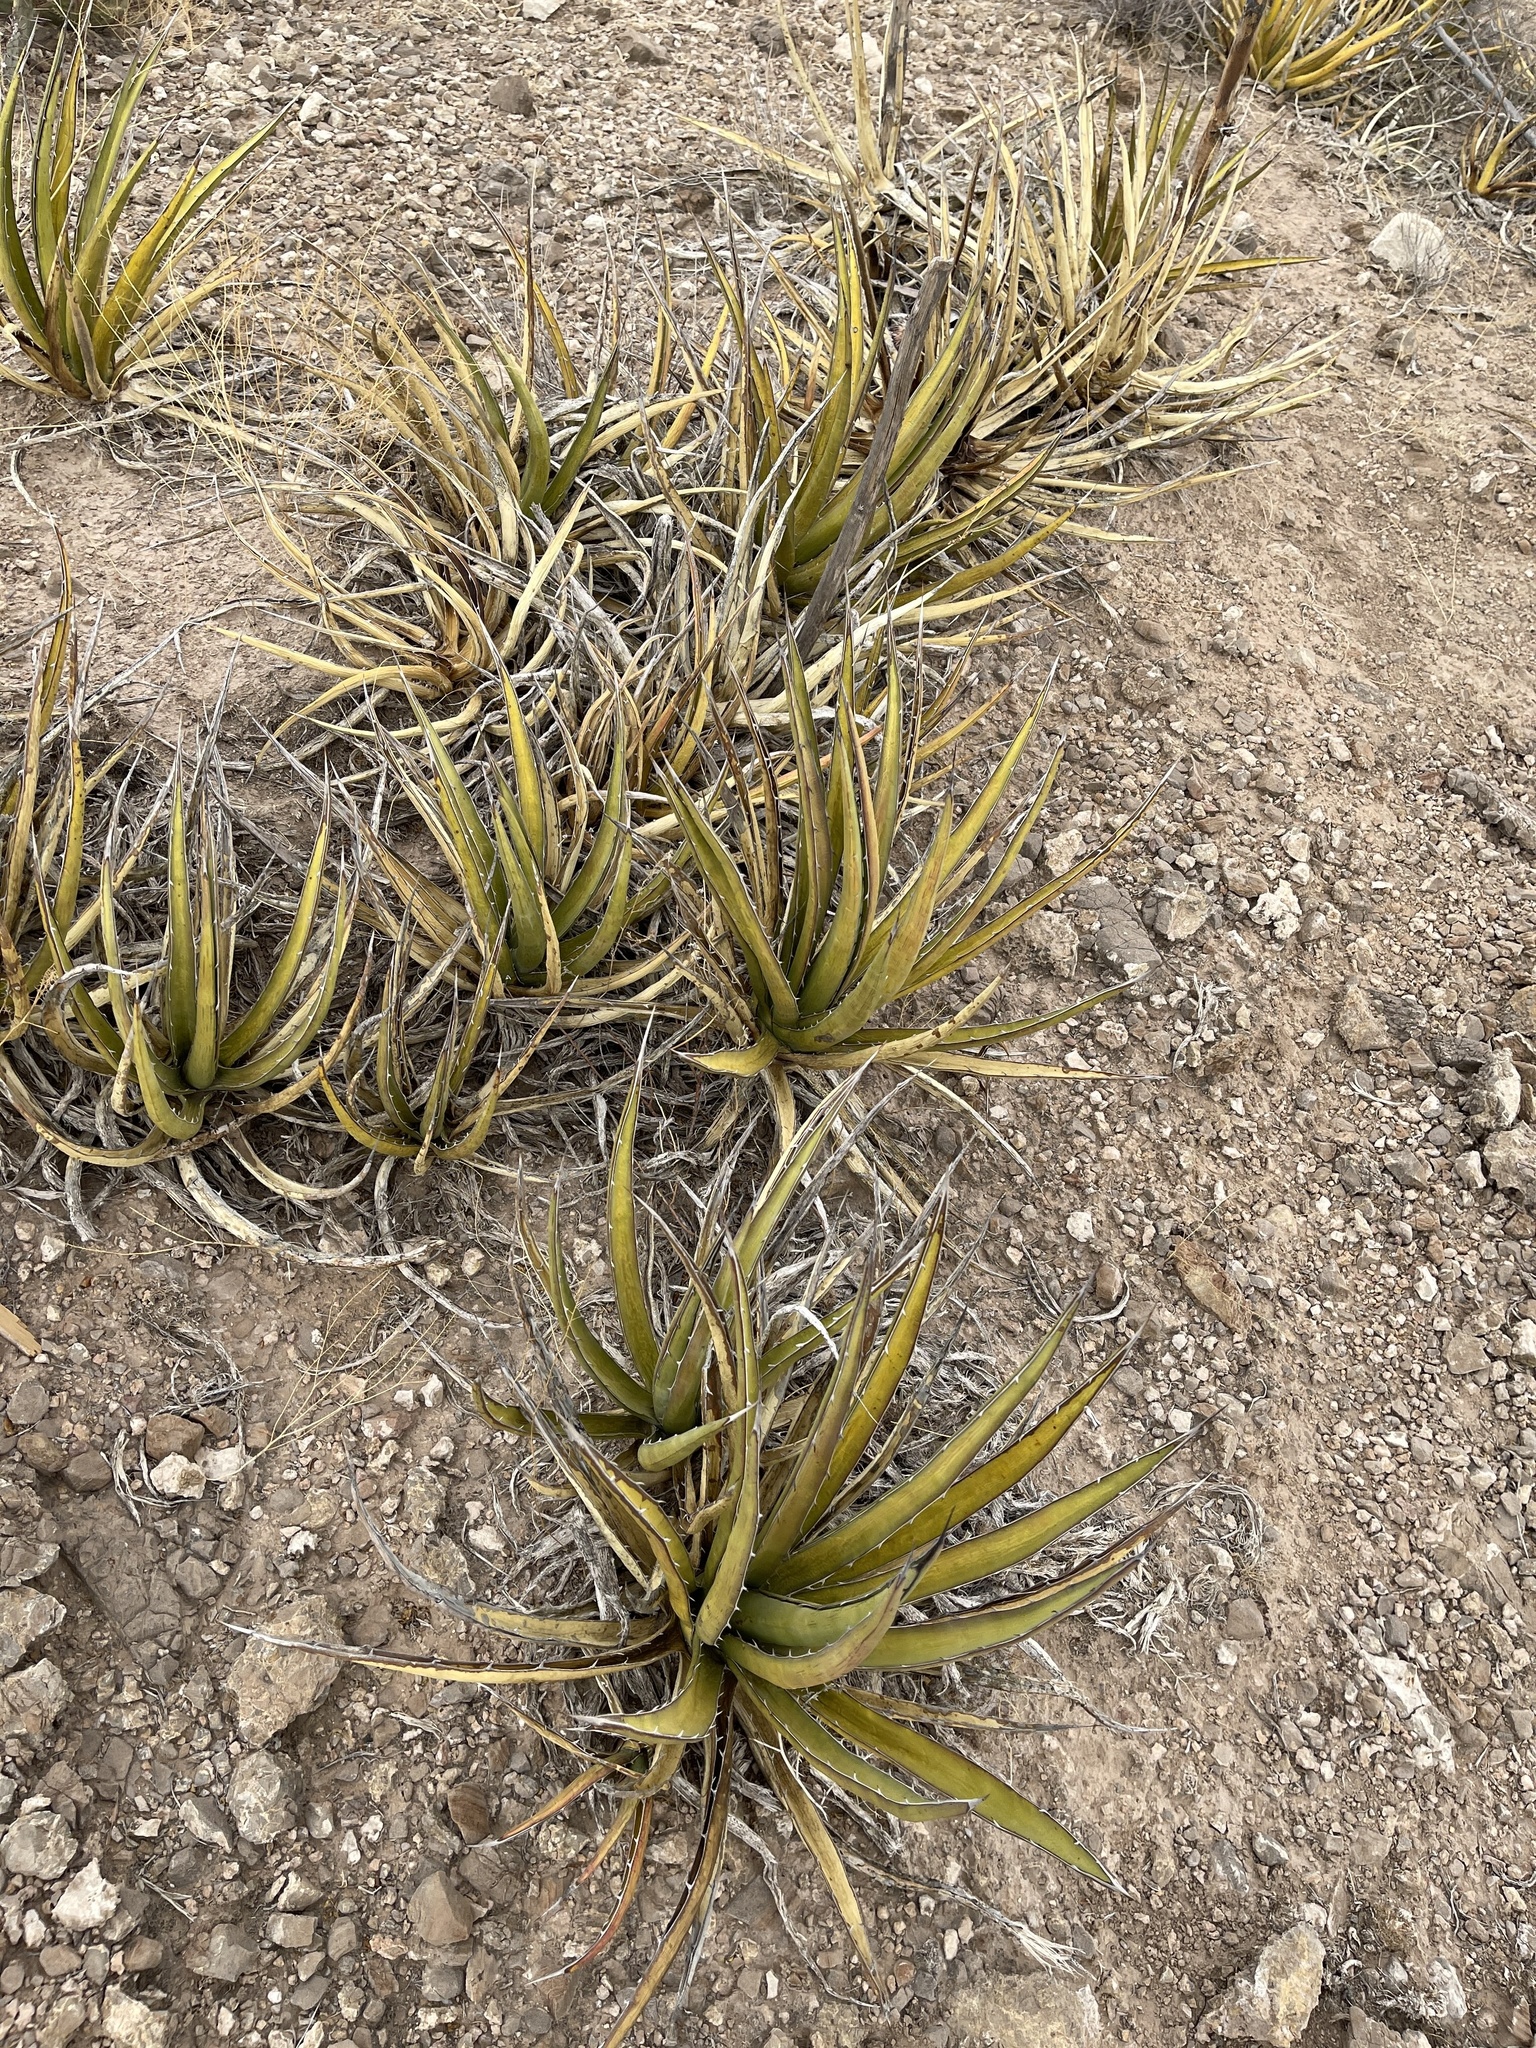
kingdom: Plantae
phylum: Tracheophyta
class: Liliopsida
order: Asparagales
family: Asparagaceae
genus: Agave
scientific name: Agave lechuguilla
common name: Lecheguilla agave
